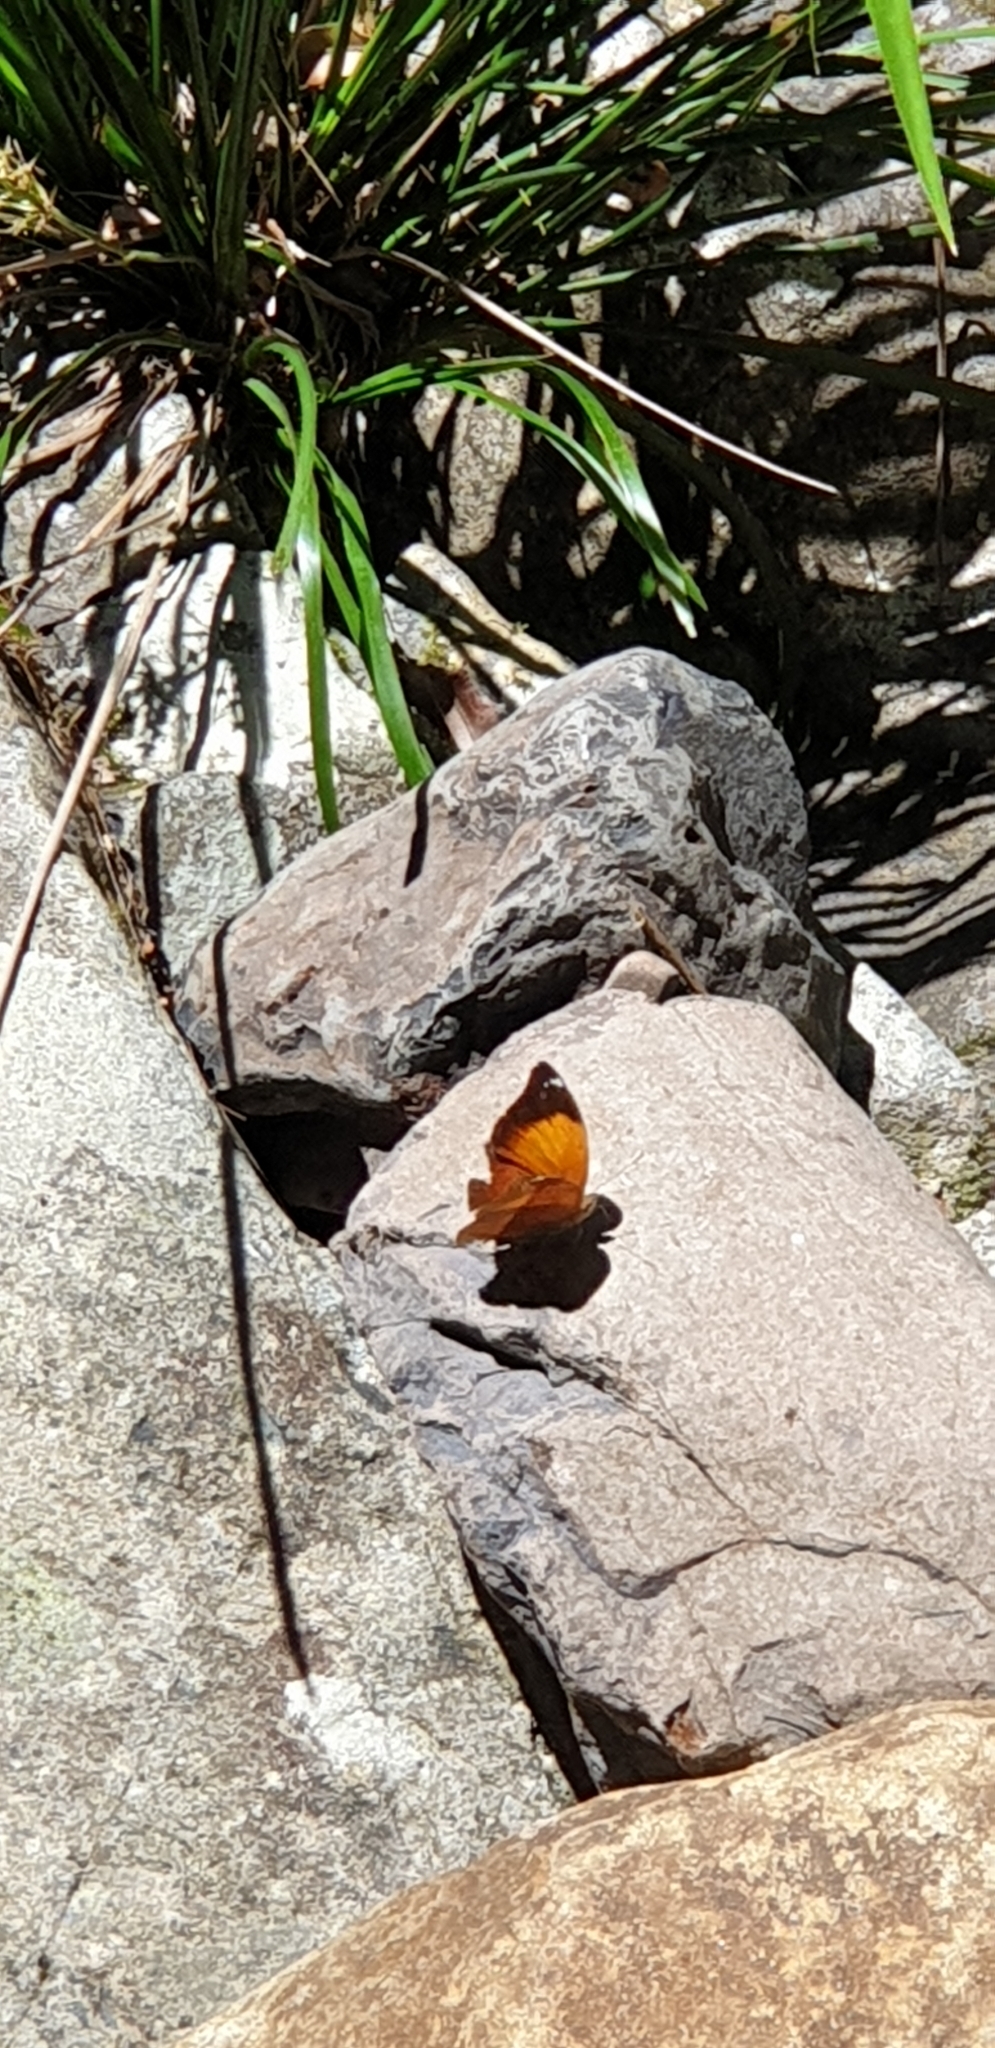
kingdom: Animalia
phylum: Arthropoda
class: Insecta
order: Lepidoptera
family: Nymphalidae
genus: Doleschallia
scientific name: Doleschallia bisaltide
